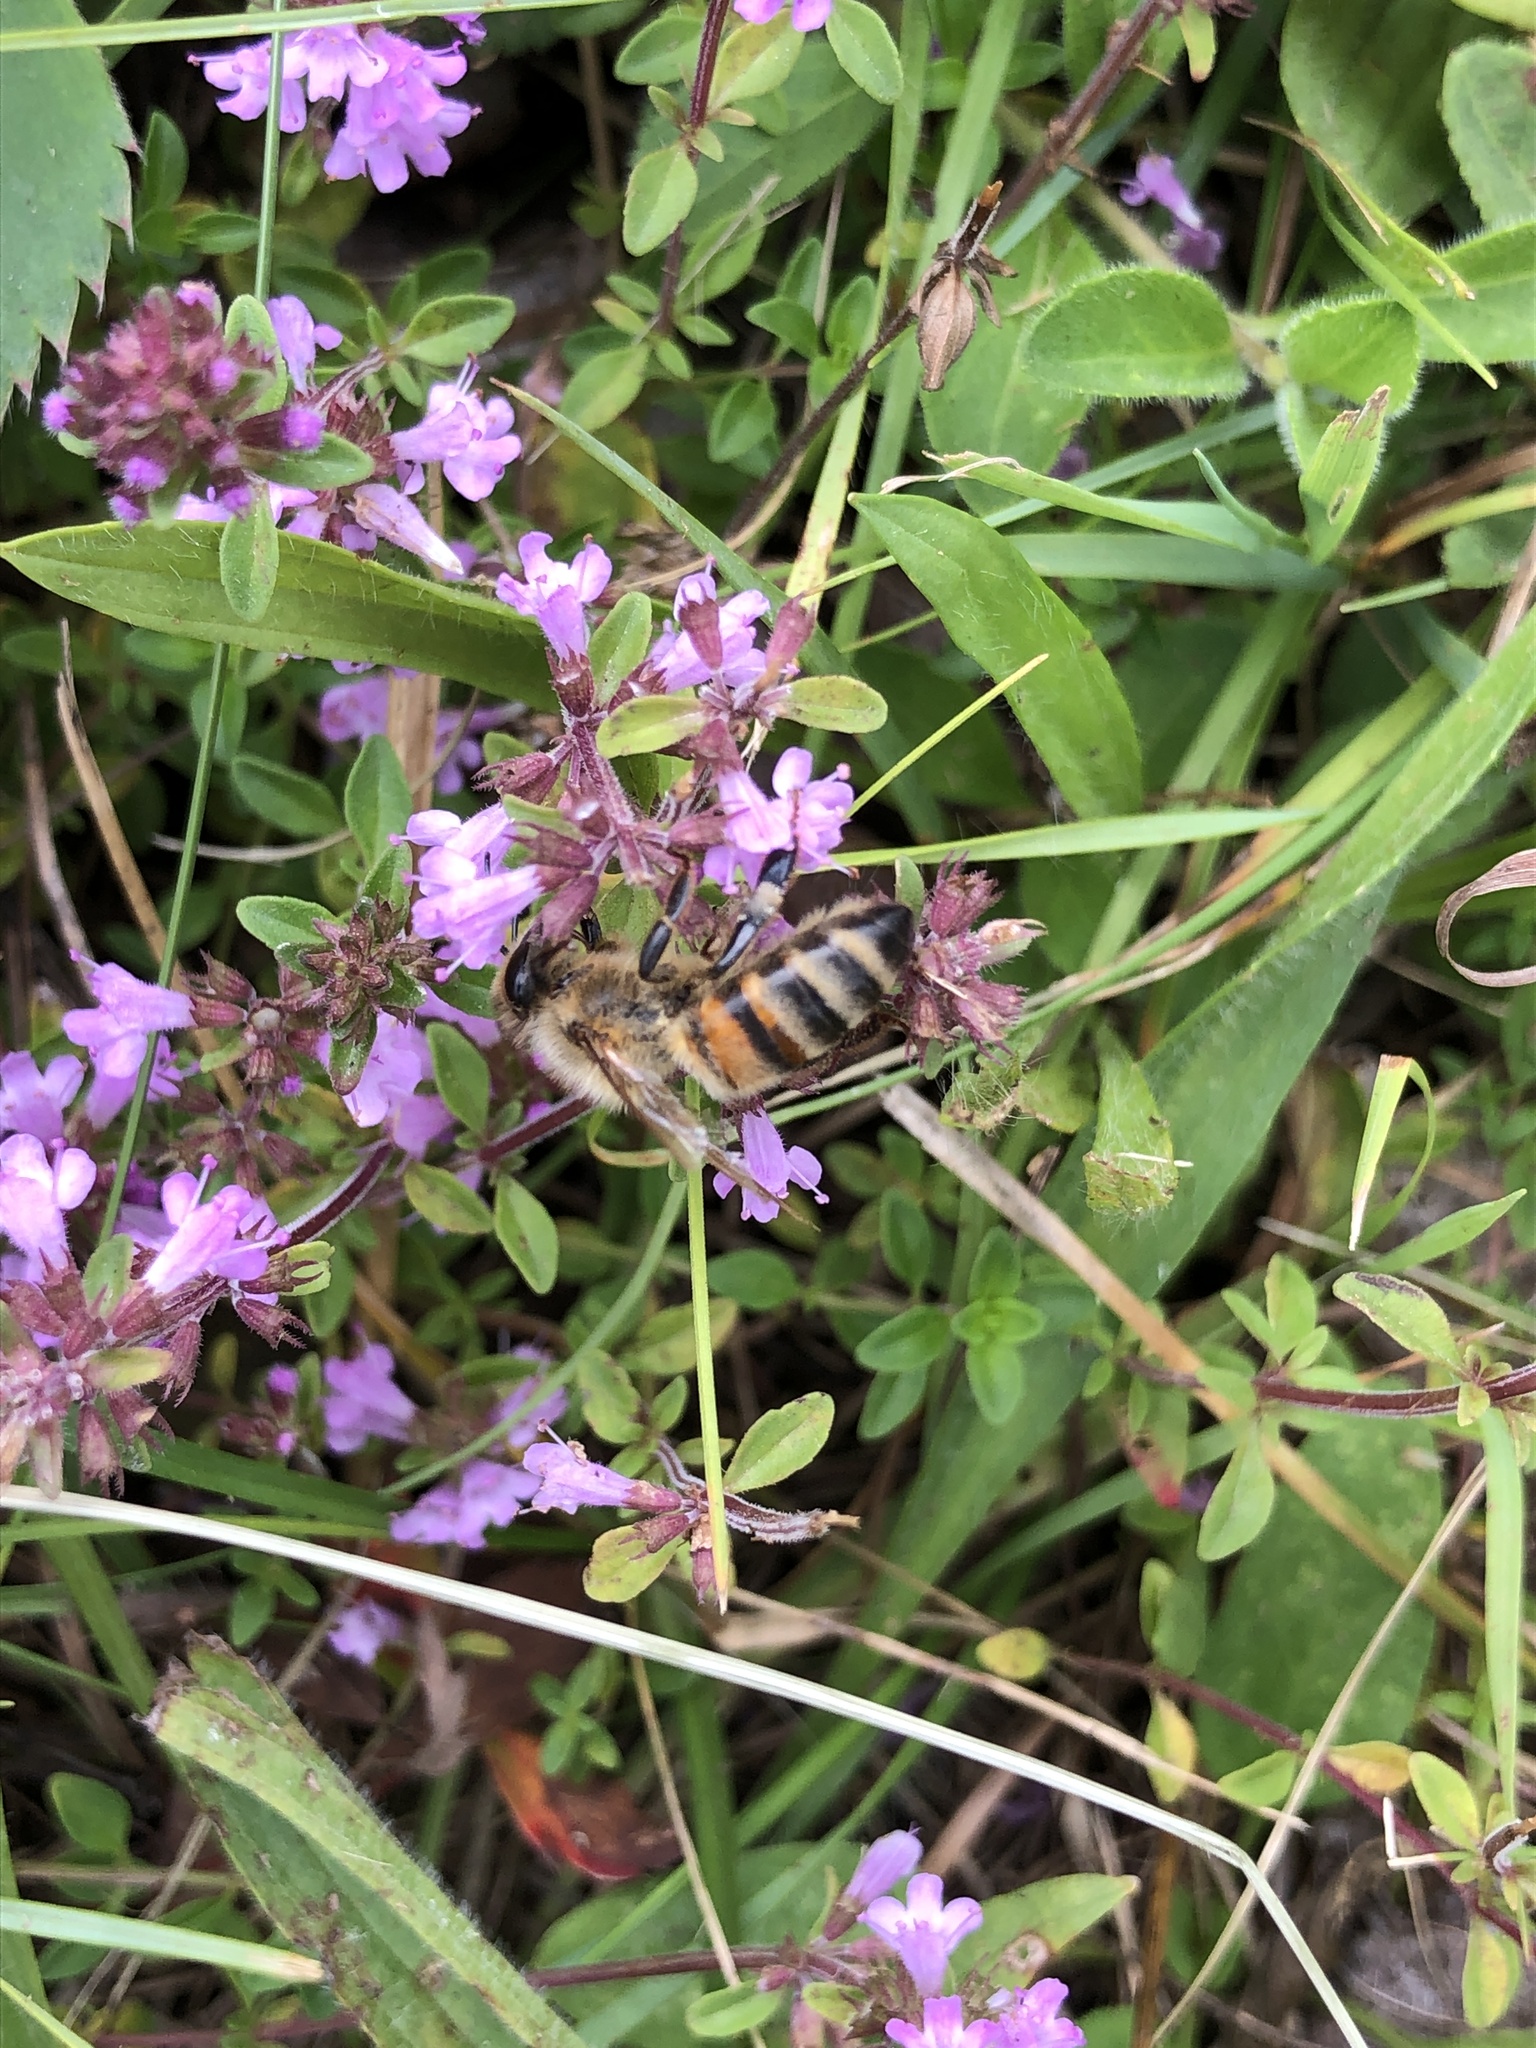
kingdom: Animalia
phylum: Arthropoda
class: Insecta
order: Hymenoptera
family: Apidae
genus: Apis
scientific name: Apis mellifera
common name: Honey bee
